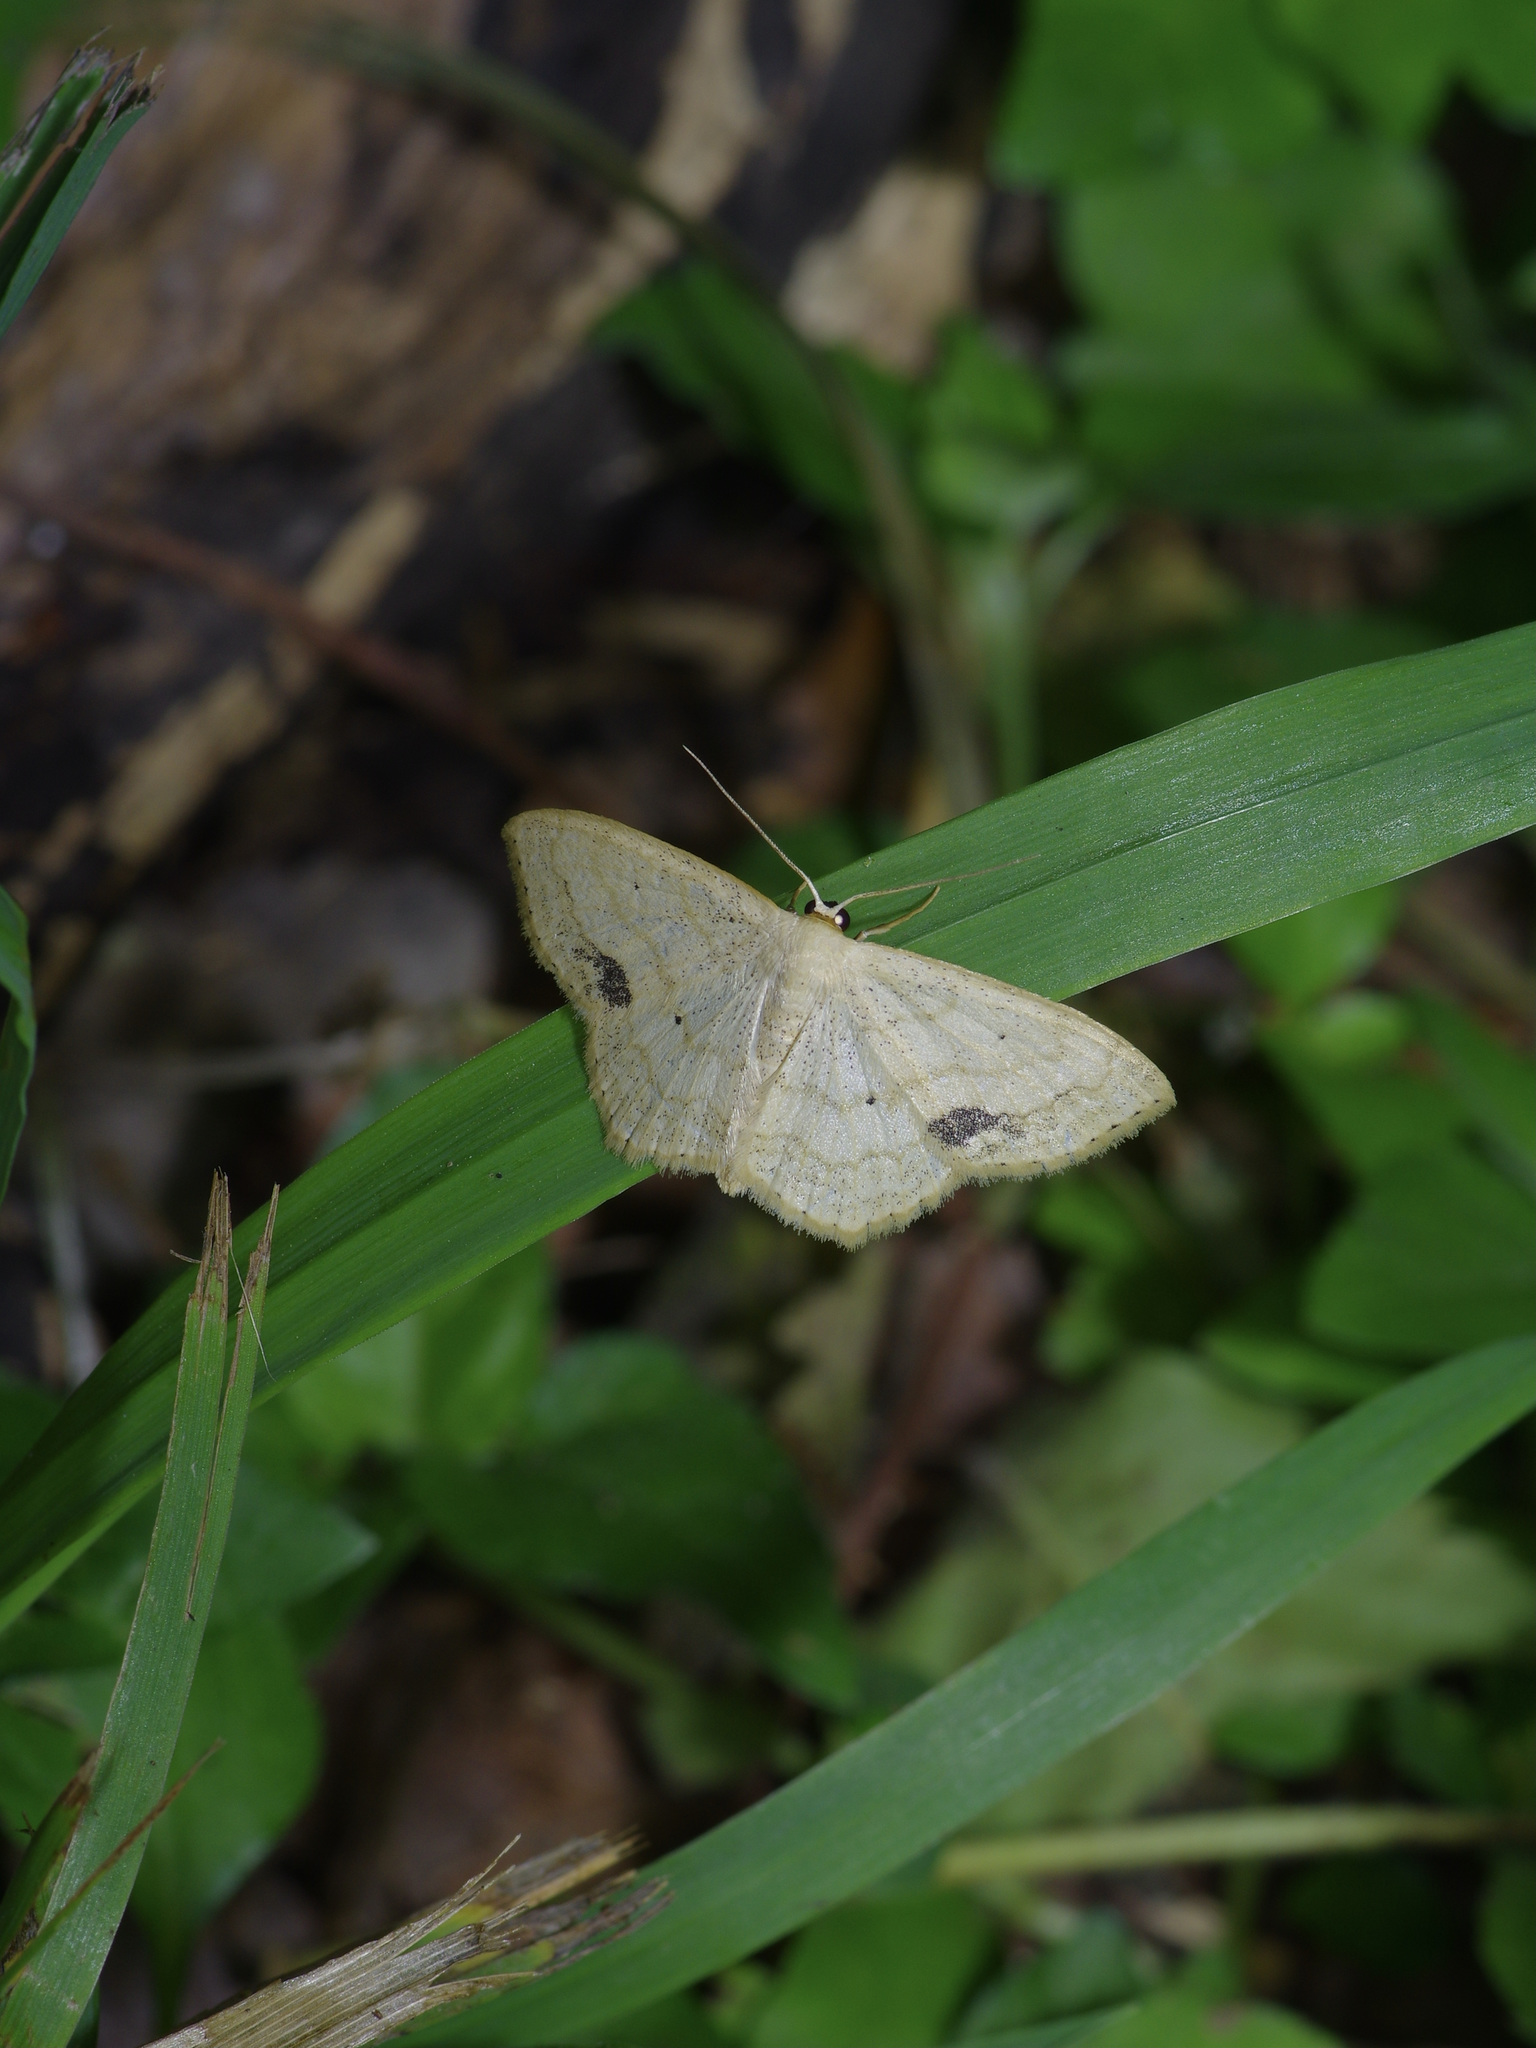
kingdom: Animalia
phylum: Arthropoda
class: Insecta
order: Lepidoptera
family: Geometridae
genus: Scopula
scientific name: Scopula limboundata
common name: Large lace border
